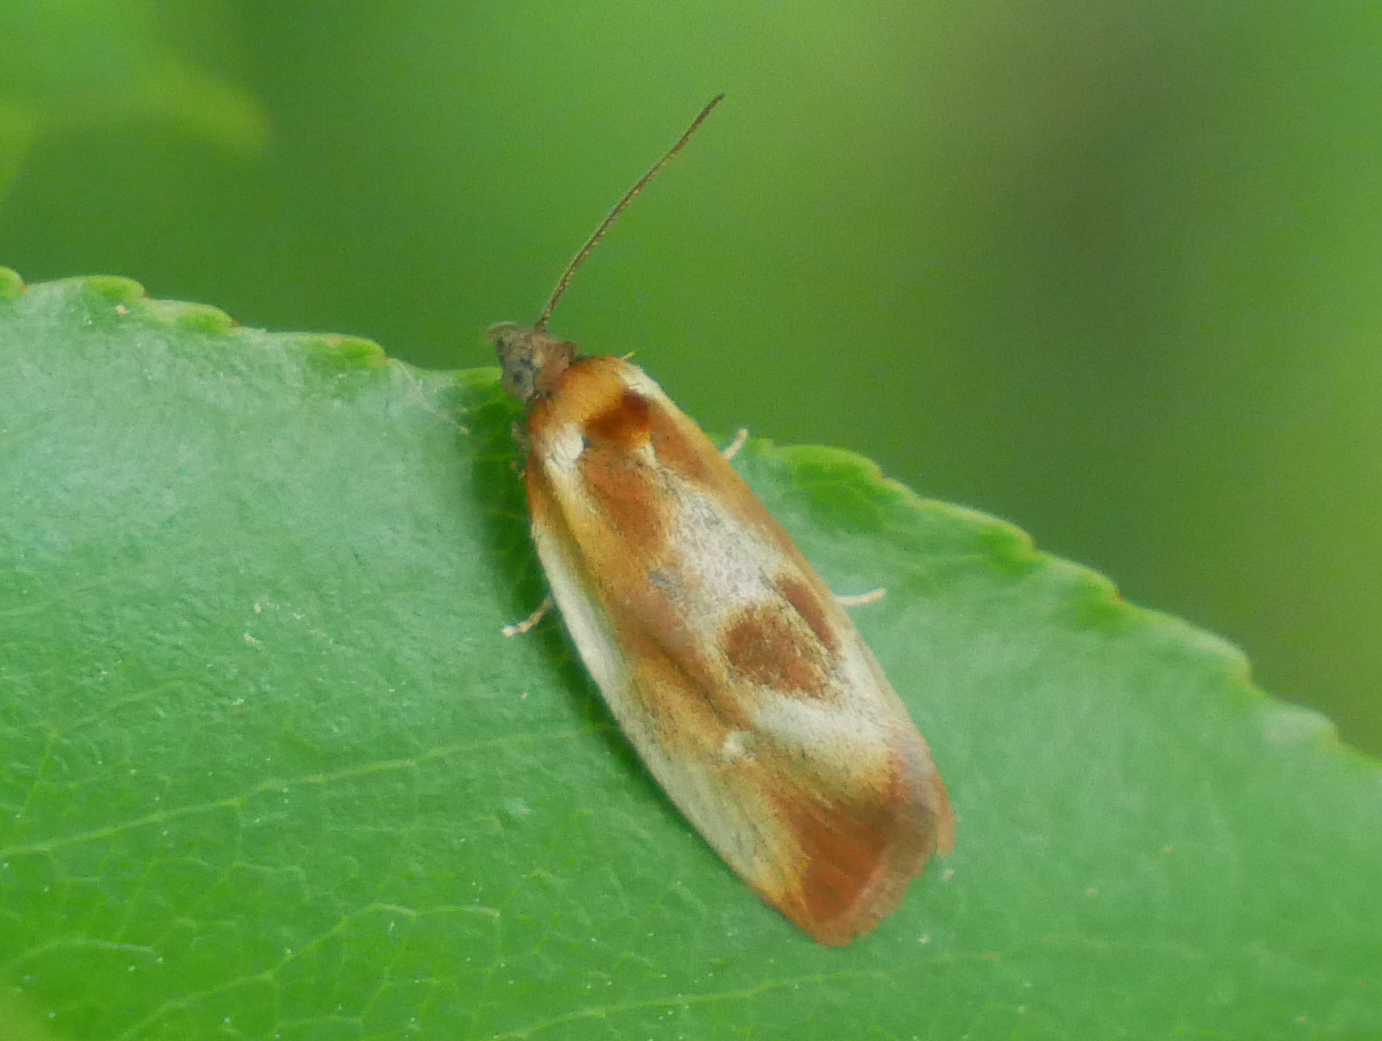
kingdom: Animalia
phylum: Arthropoda
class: Insecta
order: Lepidoptera
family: Tortricidae
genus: Eulia
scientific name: Eulia ministrana
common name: Brassy twist
